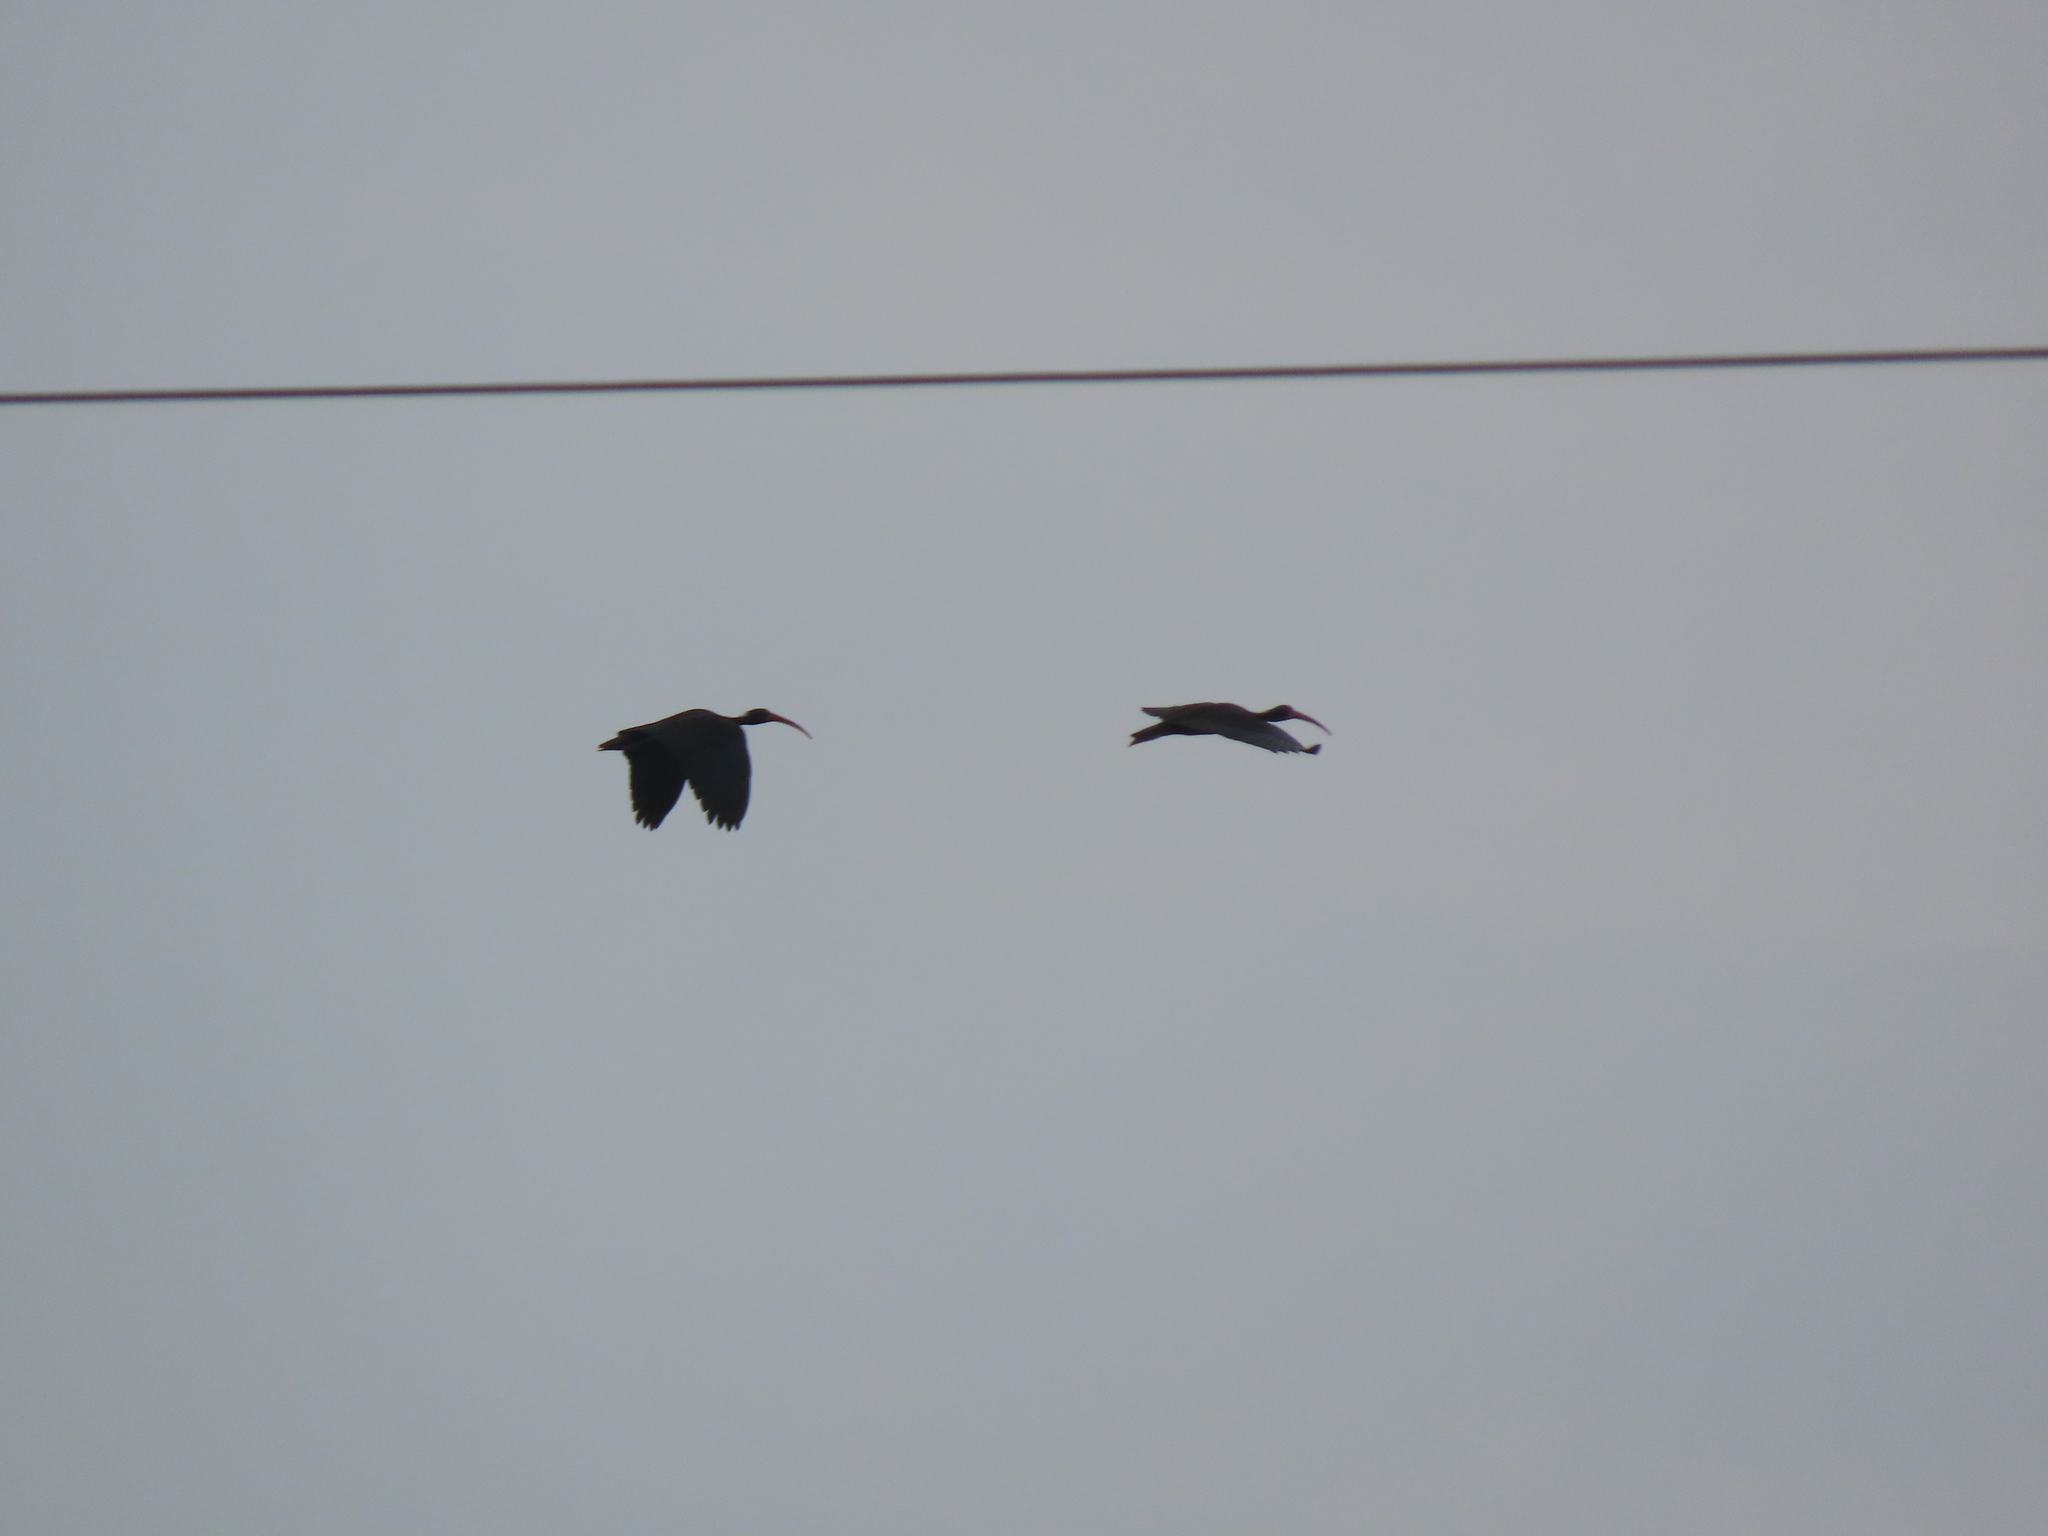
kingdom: Animalia
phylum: Chordata
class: Aves
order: Pelecaniformes
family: Threskiornithidae
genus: Phimosus
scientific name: Phimosus infuscatus
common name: Bare-faced ibis
